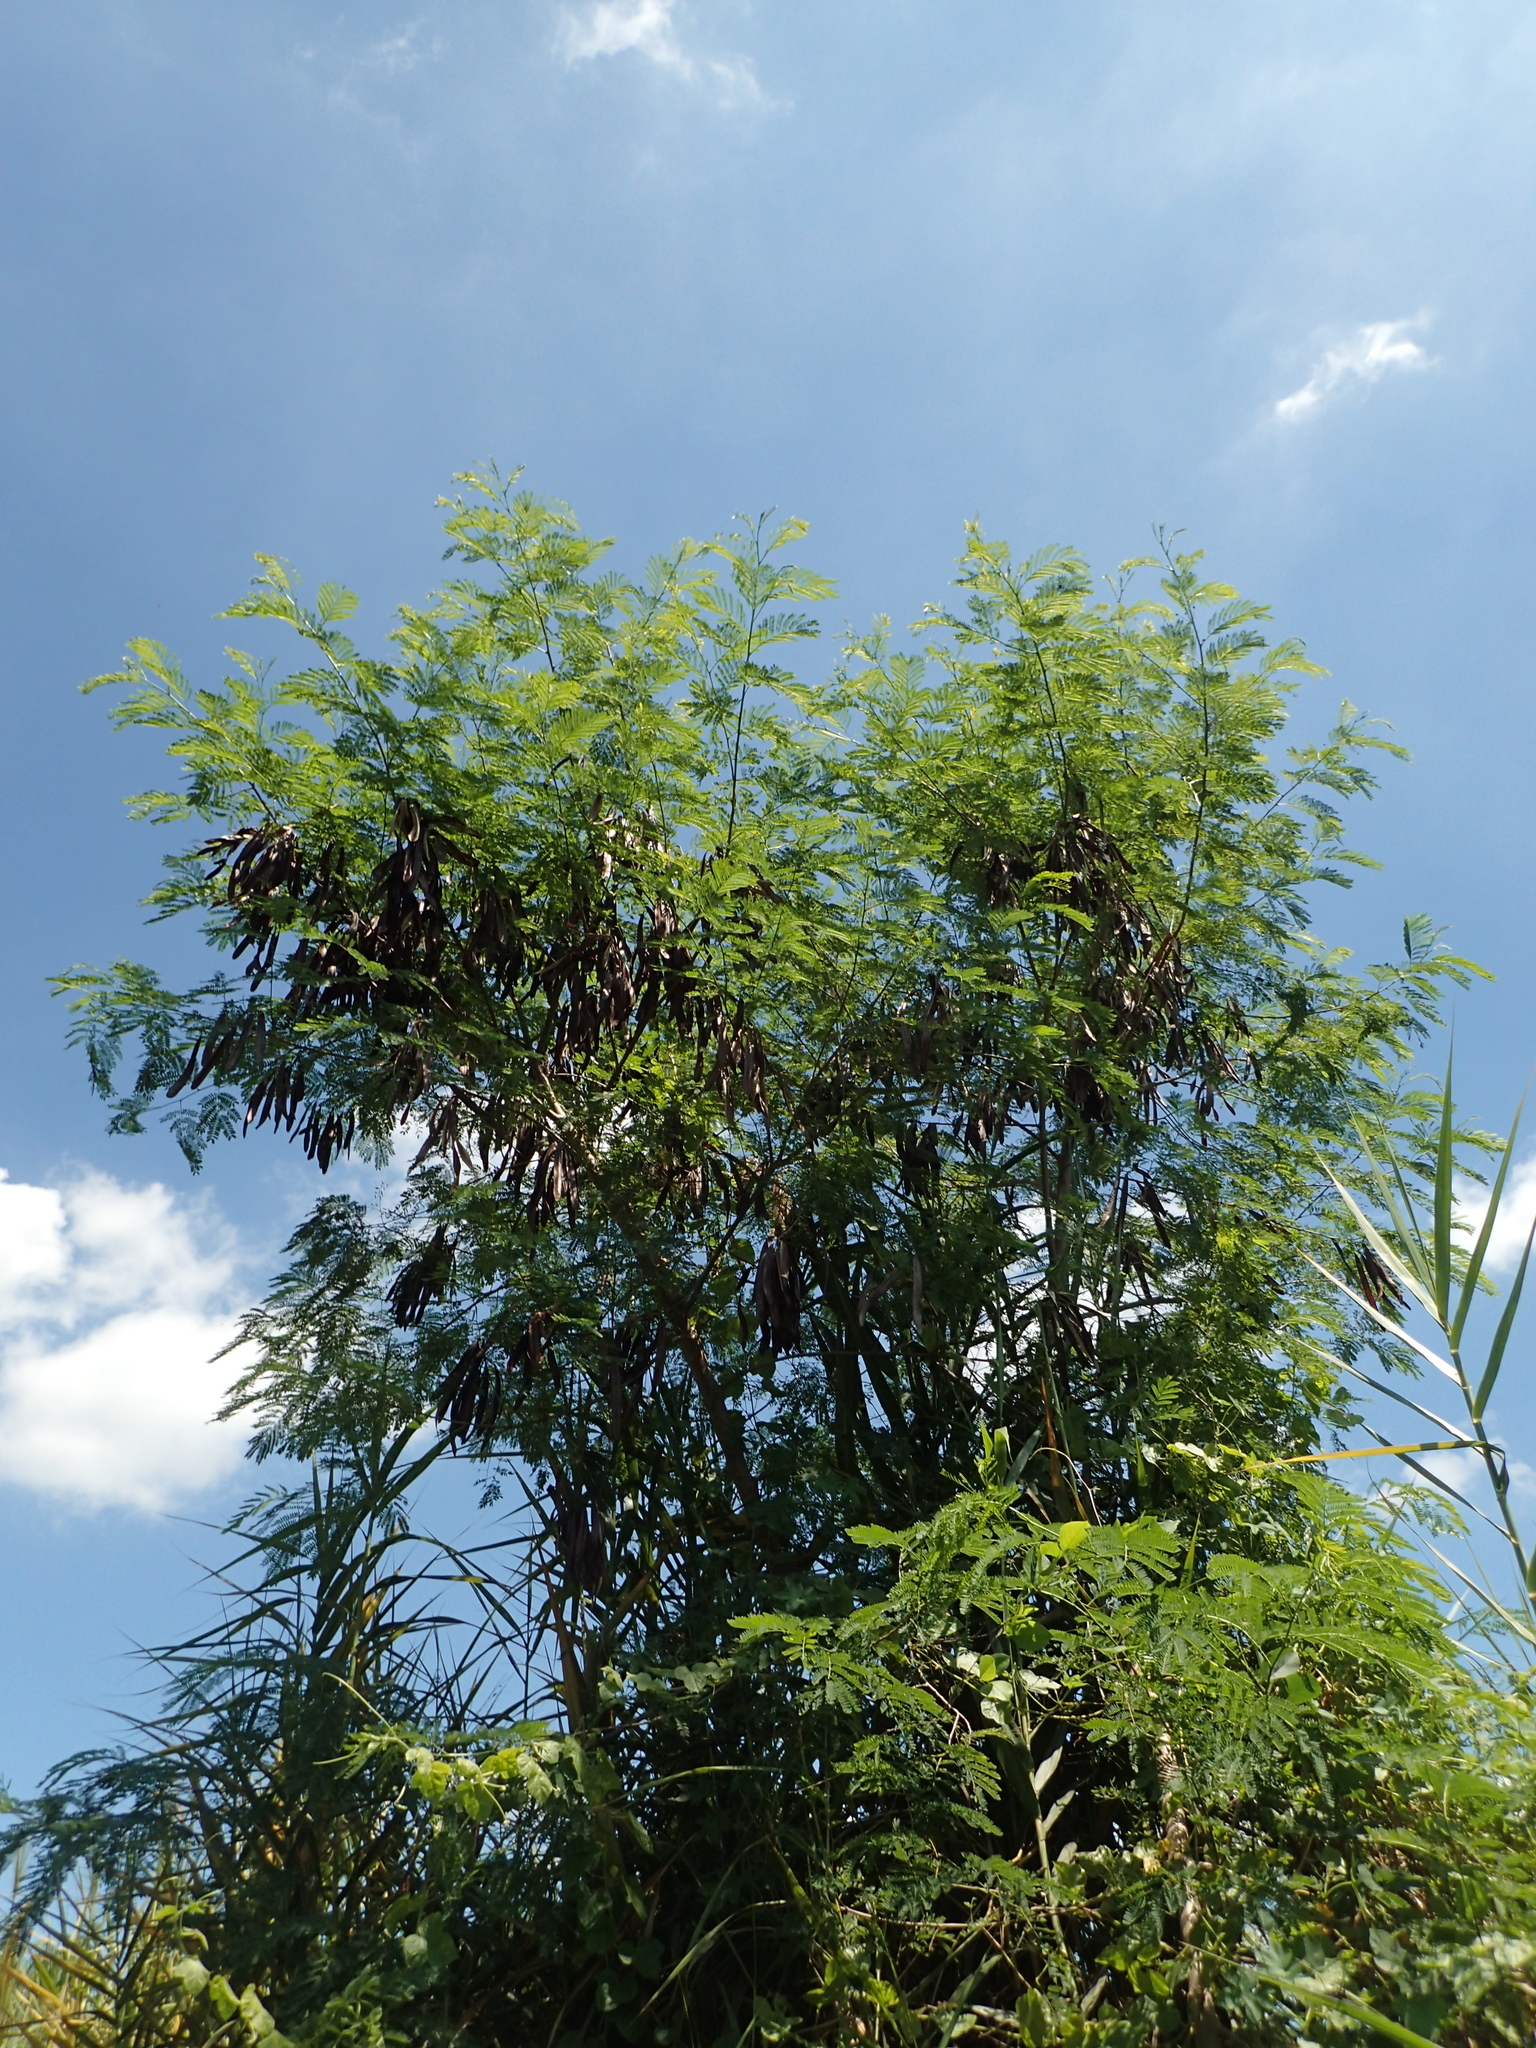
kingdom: Plantae
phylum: Tracheophyta
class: Magnoliopsida
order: Fabales
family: Fabaceae
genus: Leucaena
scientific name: Leucaena leucocephala
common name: White leadtree
